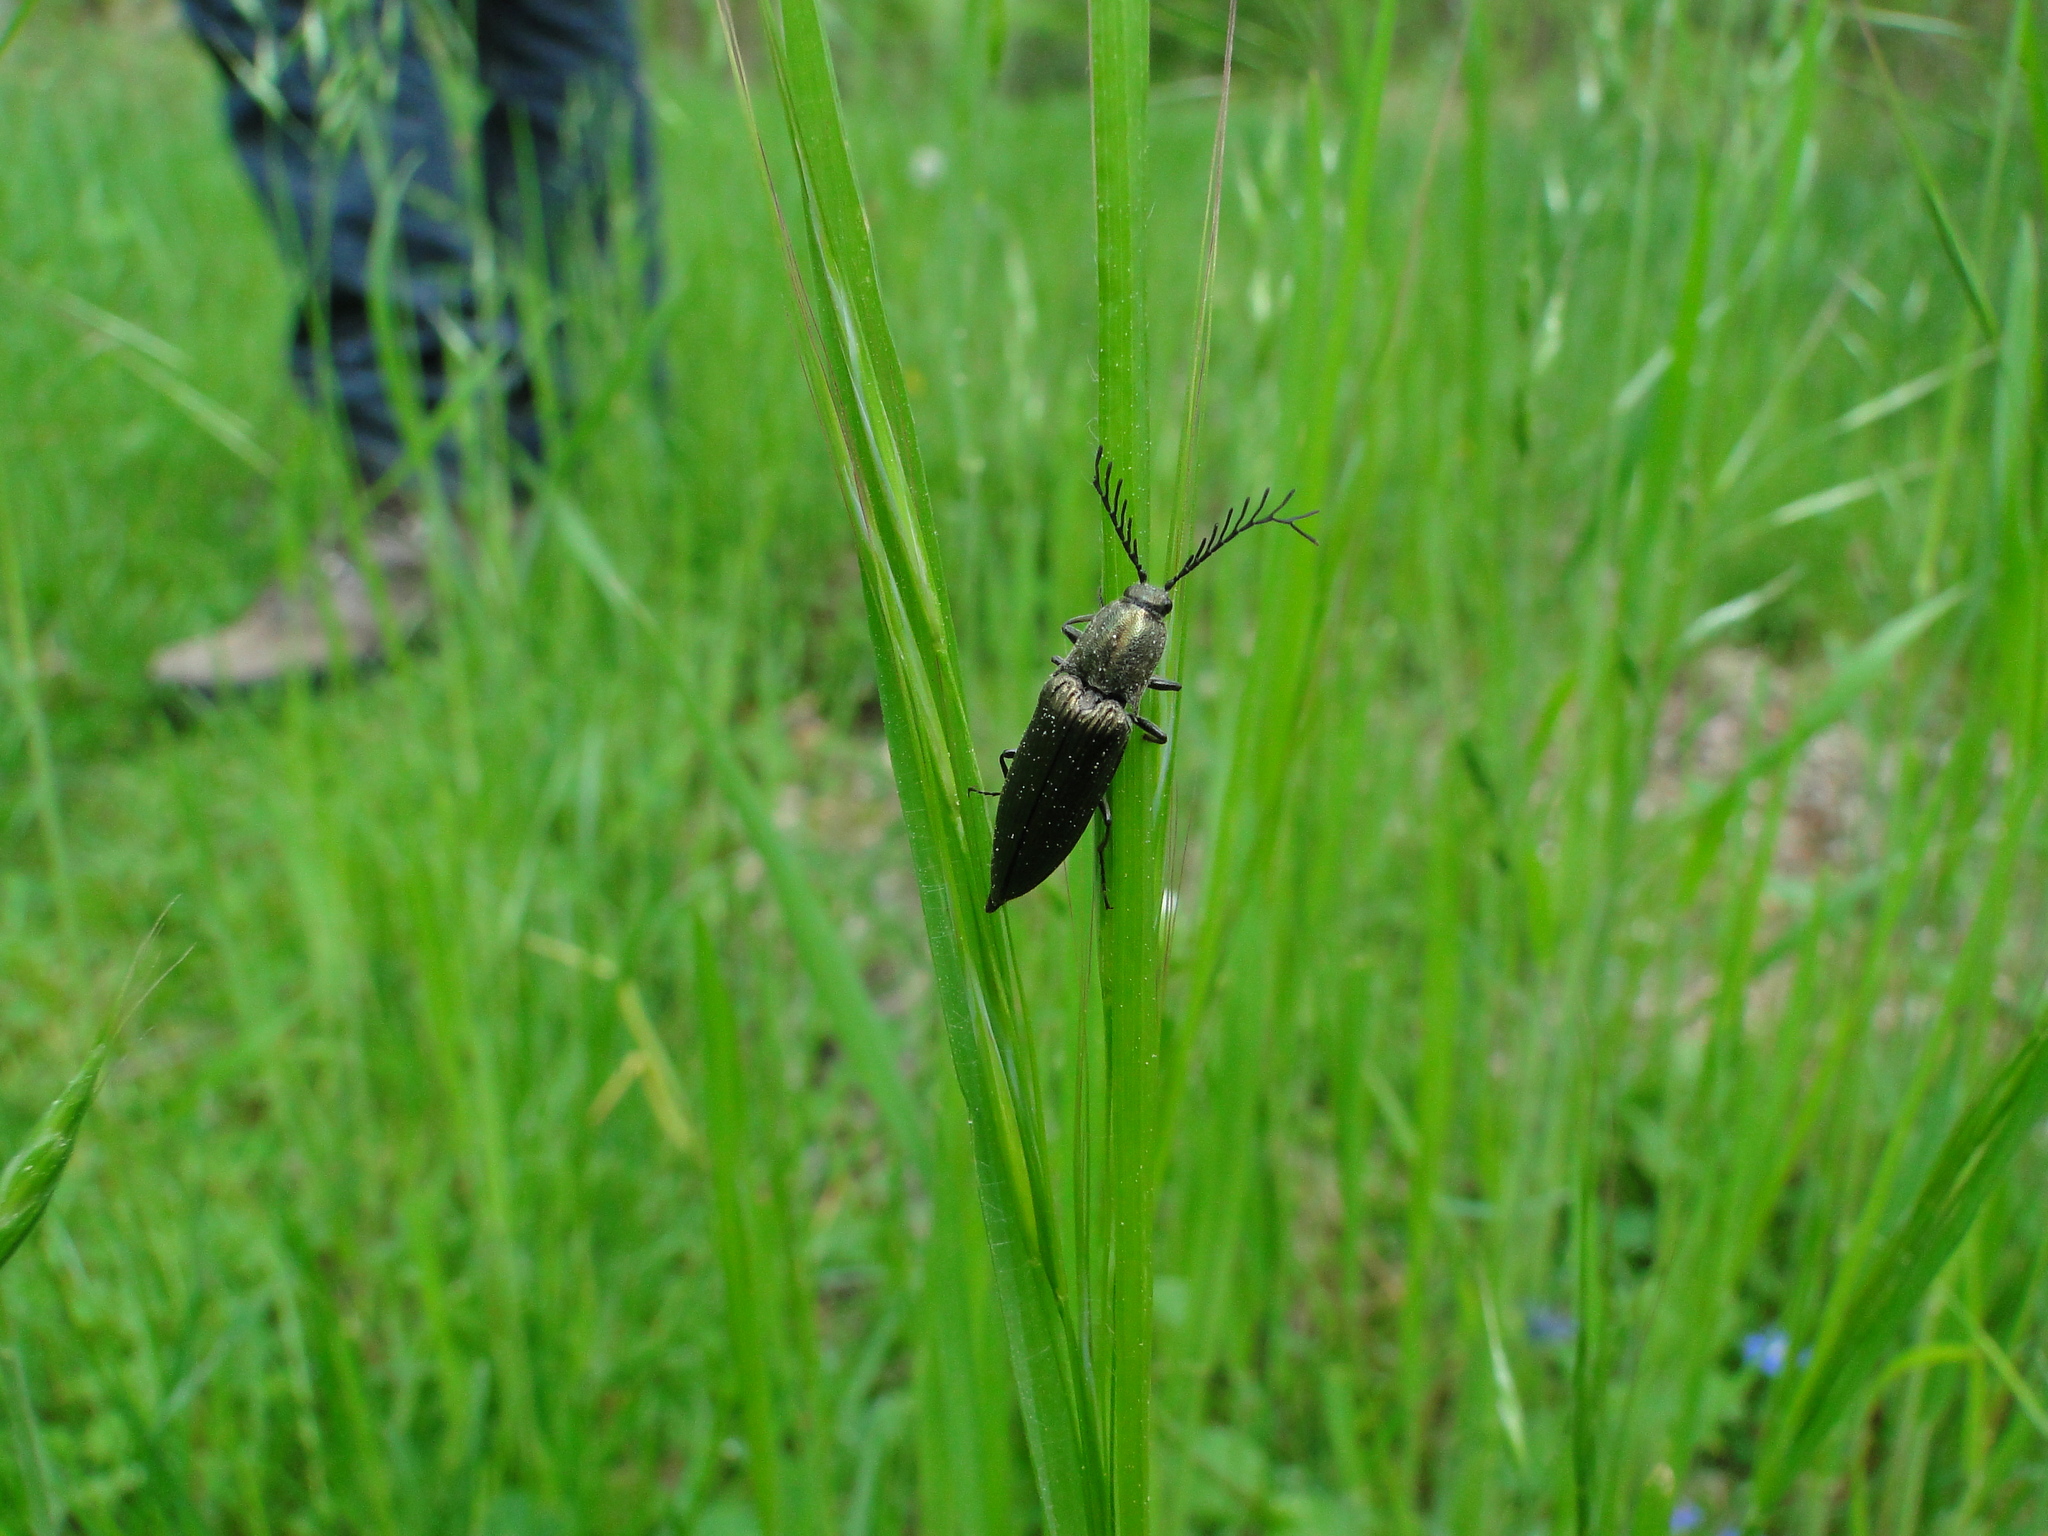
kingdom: Animalia
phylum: Arthropoda
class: Insecta
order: Coleoptera
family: Elateridae
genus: Ctenicera
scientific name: Ctenicera pectinicornis
